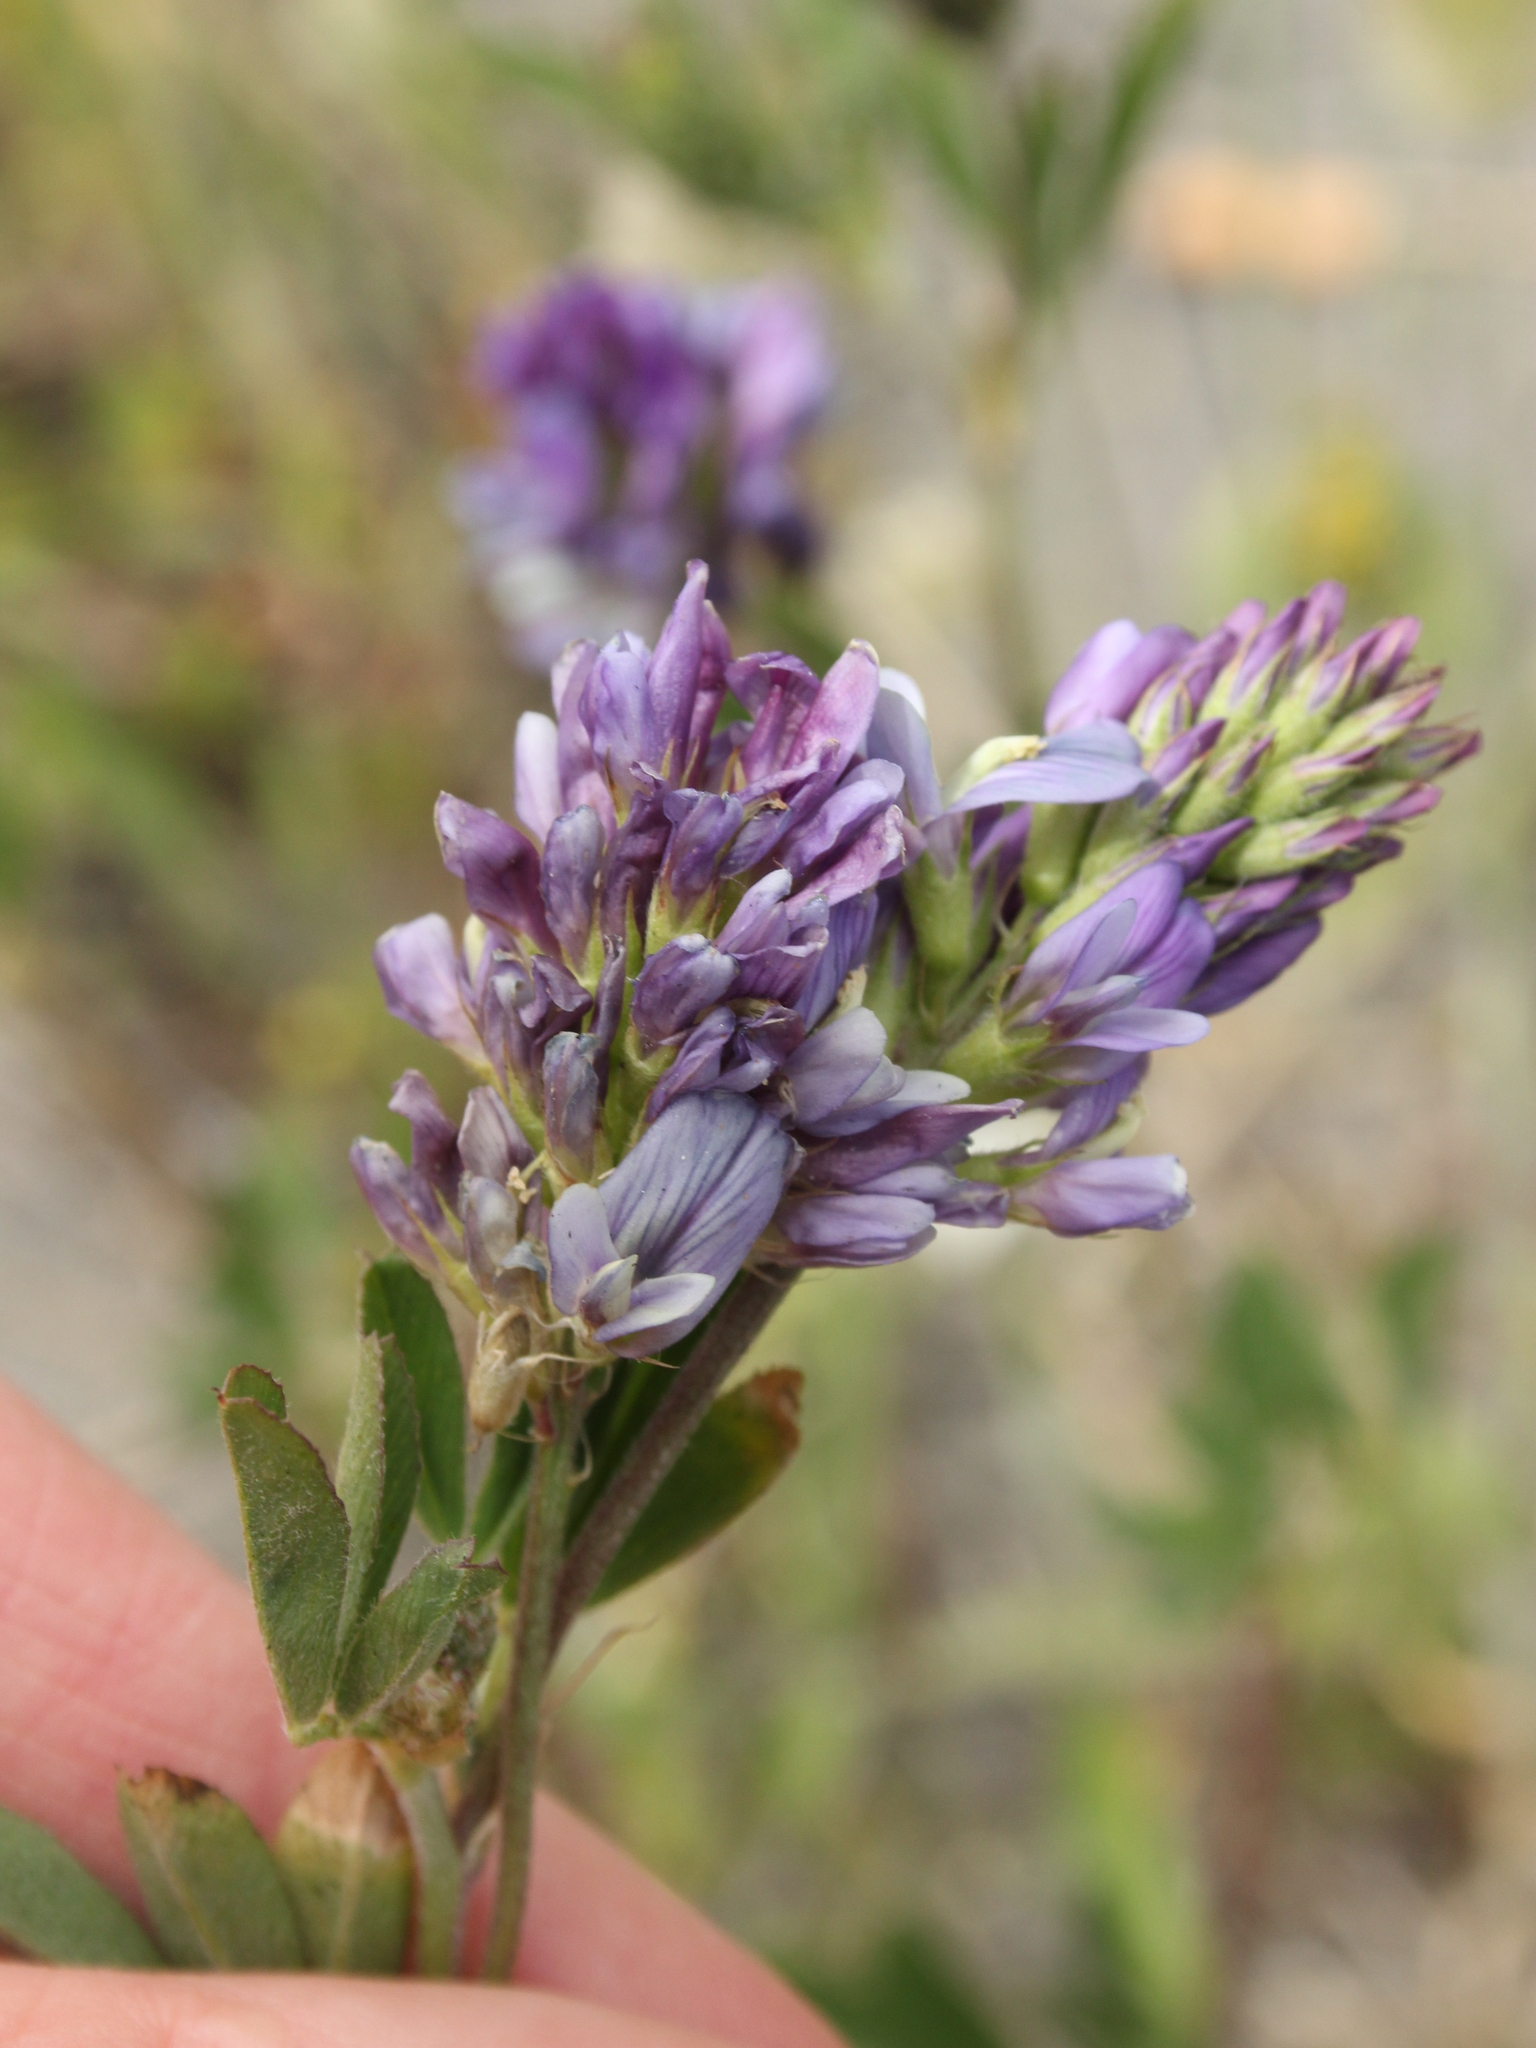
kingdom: Plantae
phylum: Tracheophyta
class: Magnoliopsida
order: Fabales
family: Fabaceae
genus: Medicago
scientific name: Medicago sativa
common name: Alfalfa
